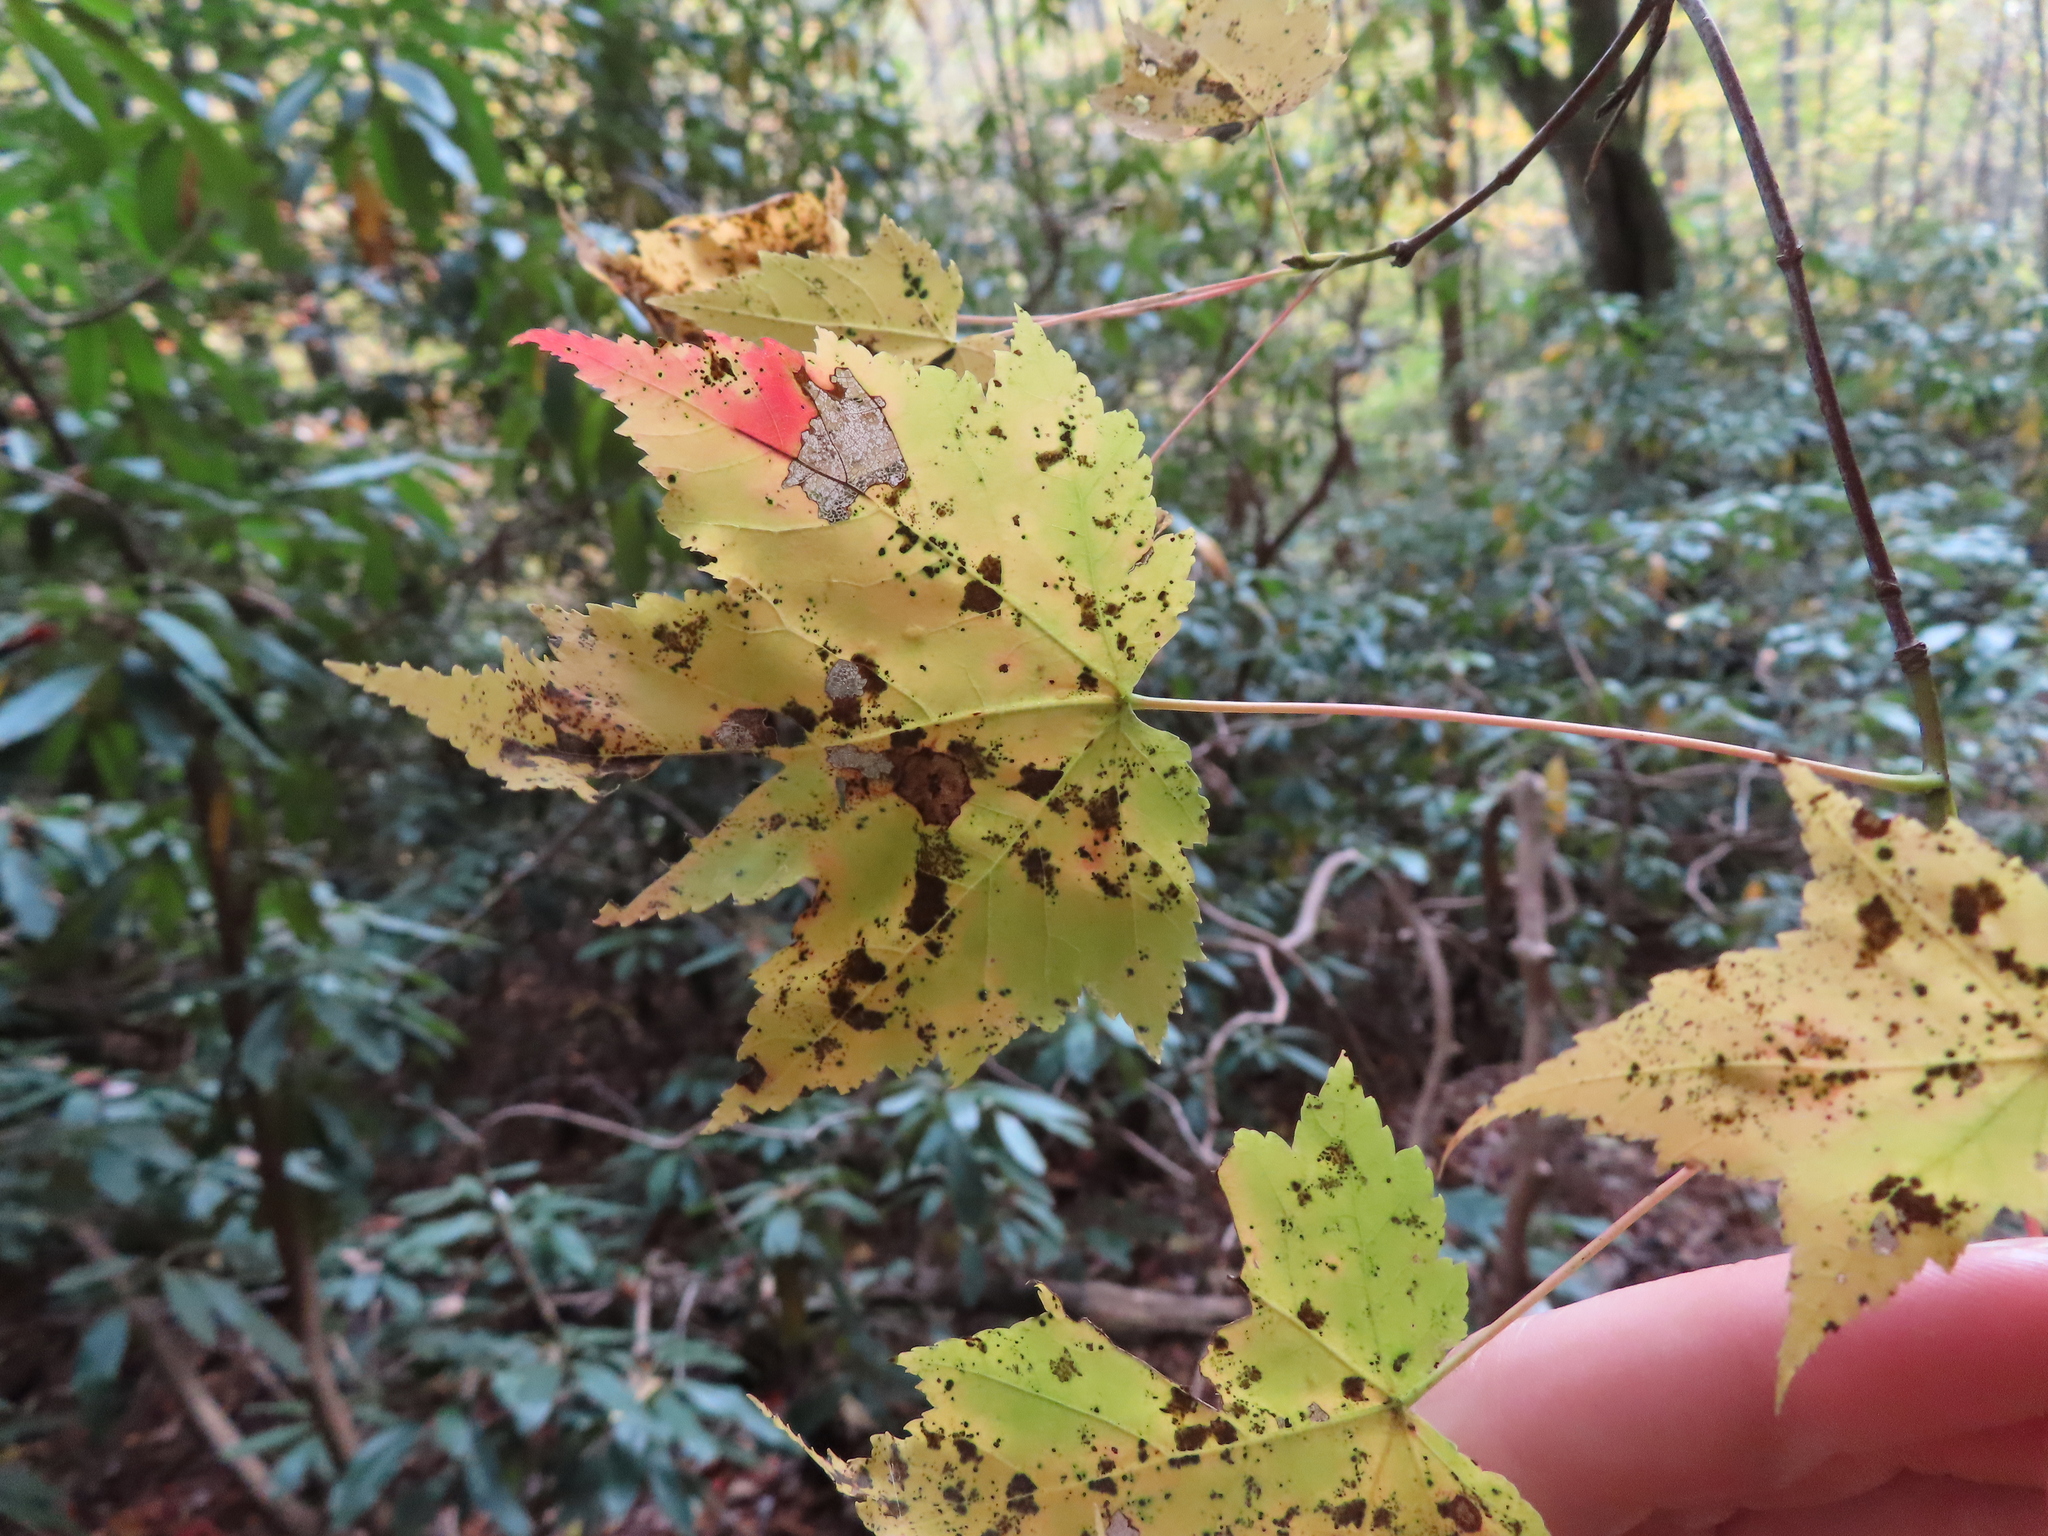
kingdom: Plantae
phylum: Tracheophyta
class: Magnoliopsida
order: Sapindales
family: Sapindaceae
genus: Acer
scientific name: Acer rubrum
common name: Red maple
